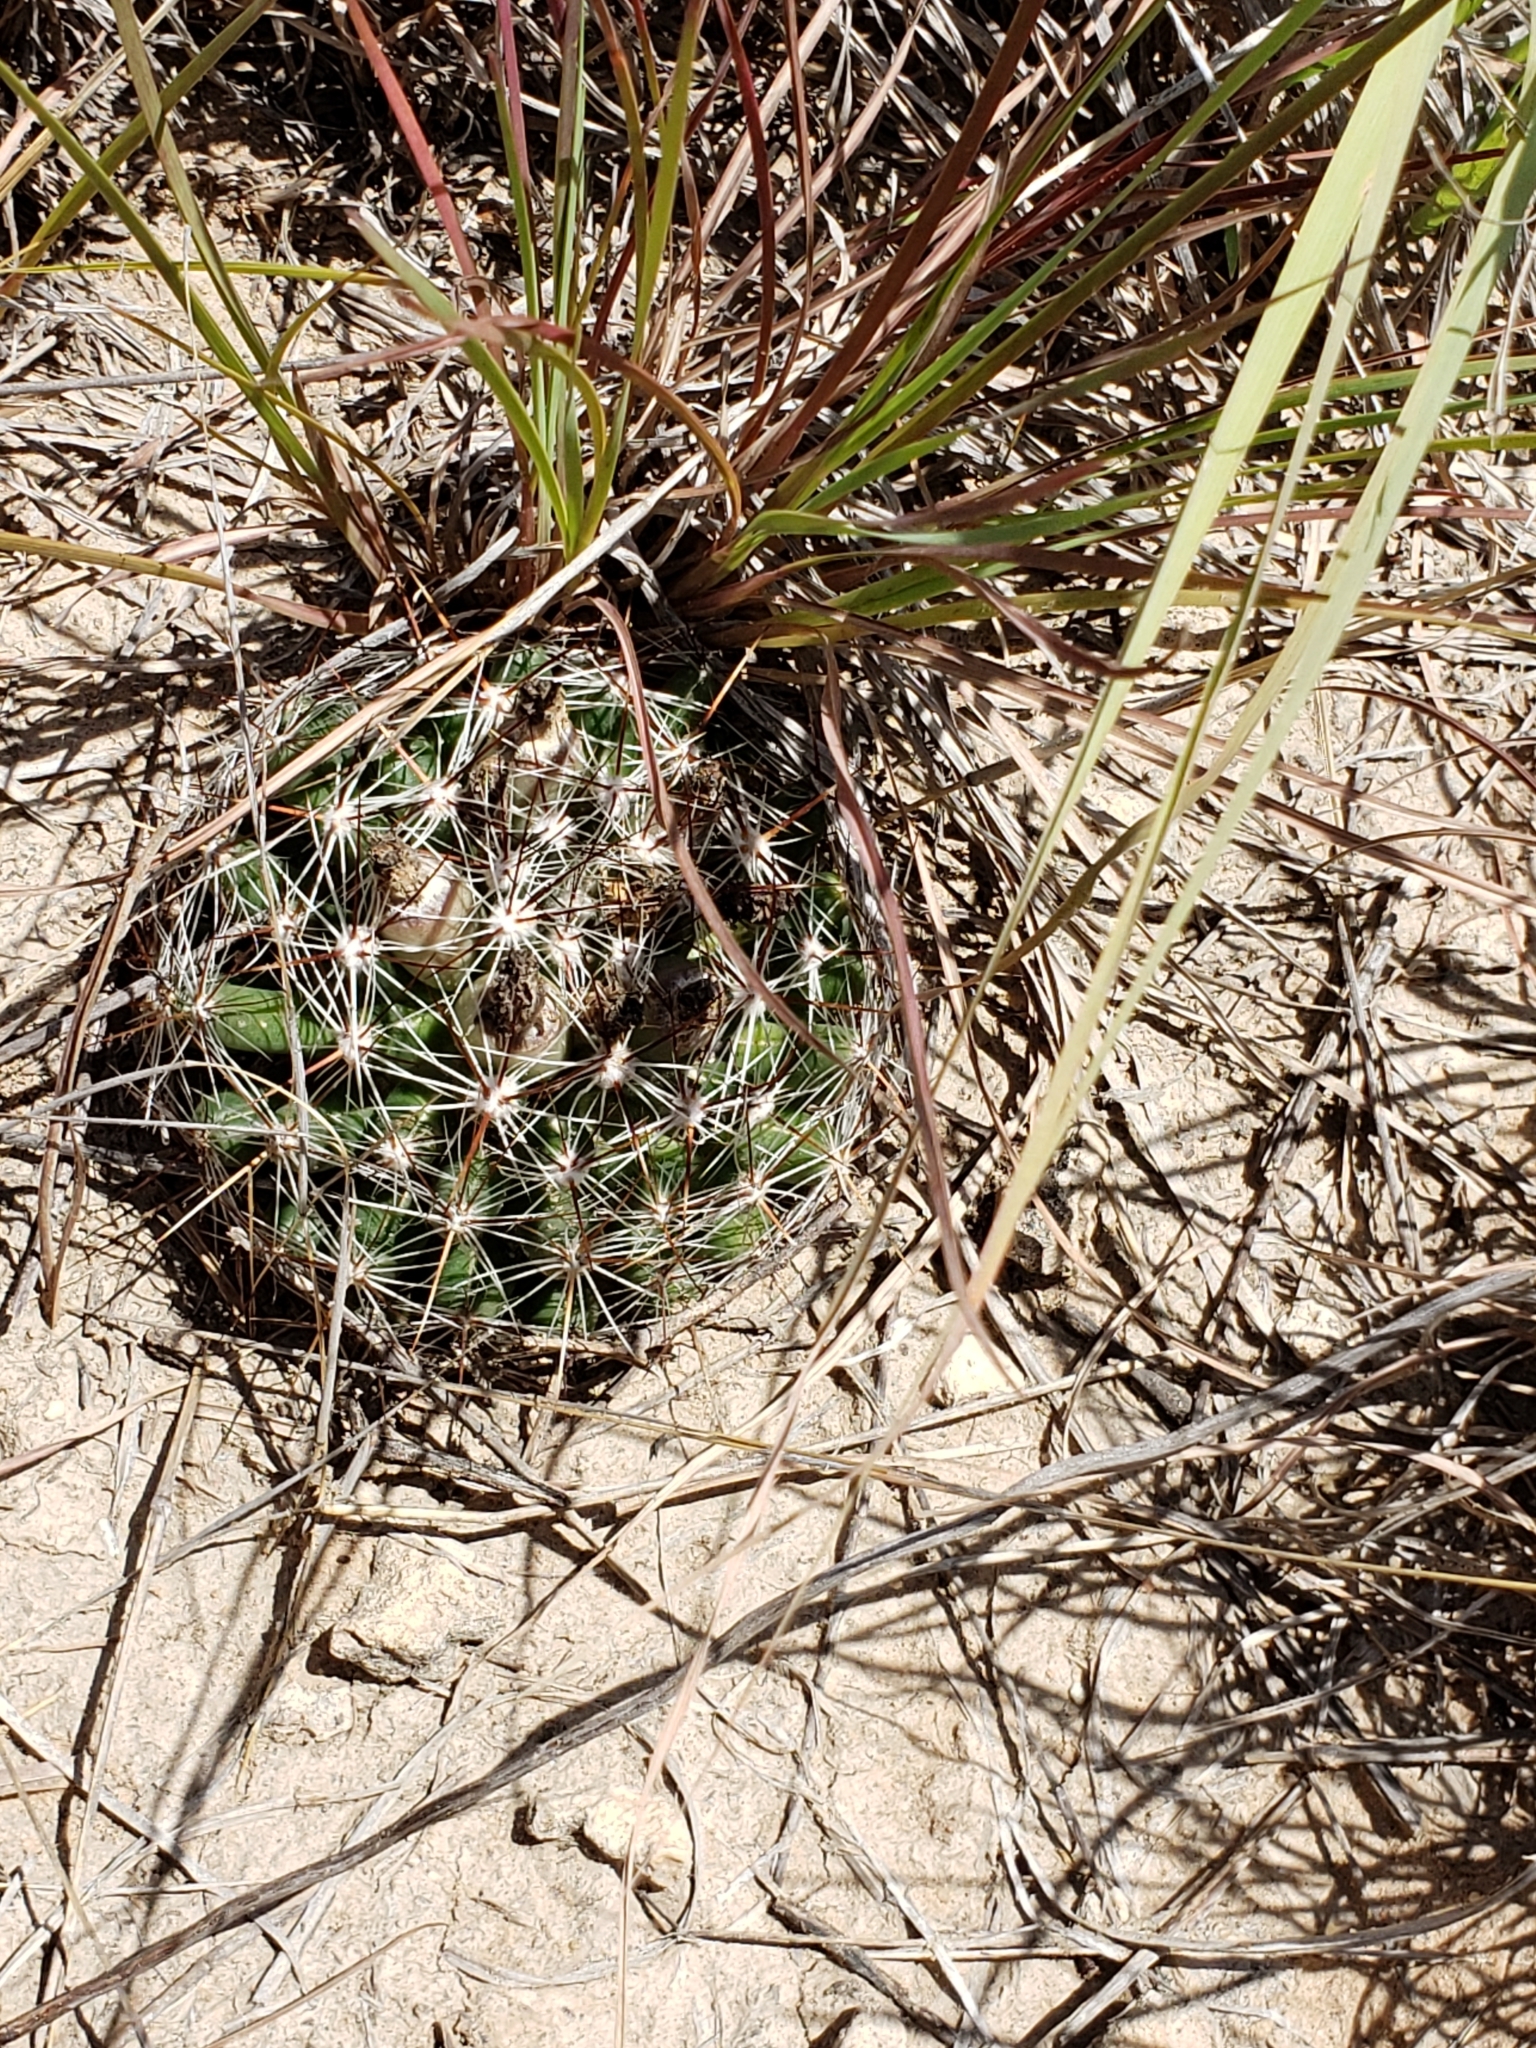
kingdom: Plantae
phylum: Tracheophyta
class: Magnoliopsida
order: Caryophyllales
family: Cactaceae
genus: Pelecyphora
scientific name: Pelecyphora vivipara
